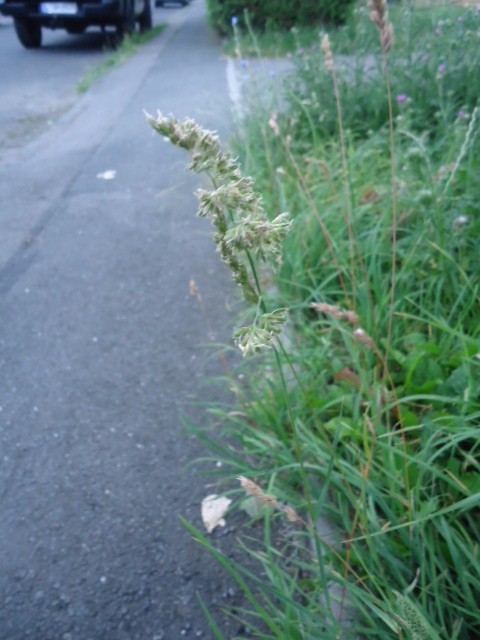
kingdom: Plantae
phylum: Tracheophyta
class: Liliopsida
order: Poales
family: Poaceae
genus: Dactylis
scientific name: Dactylis glomerata
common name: Orchardgrass
